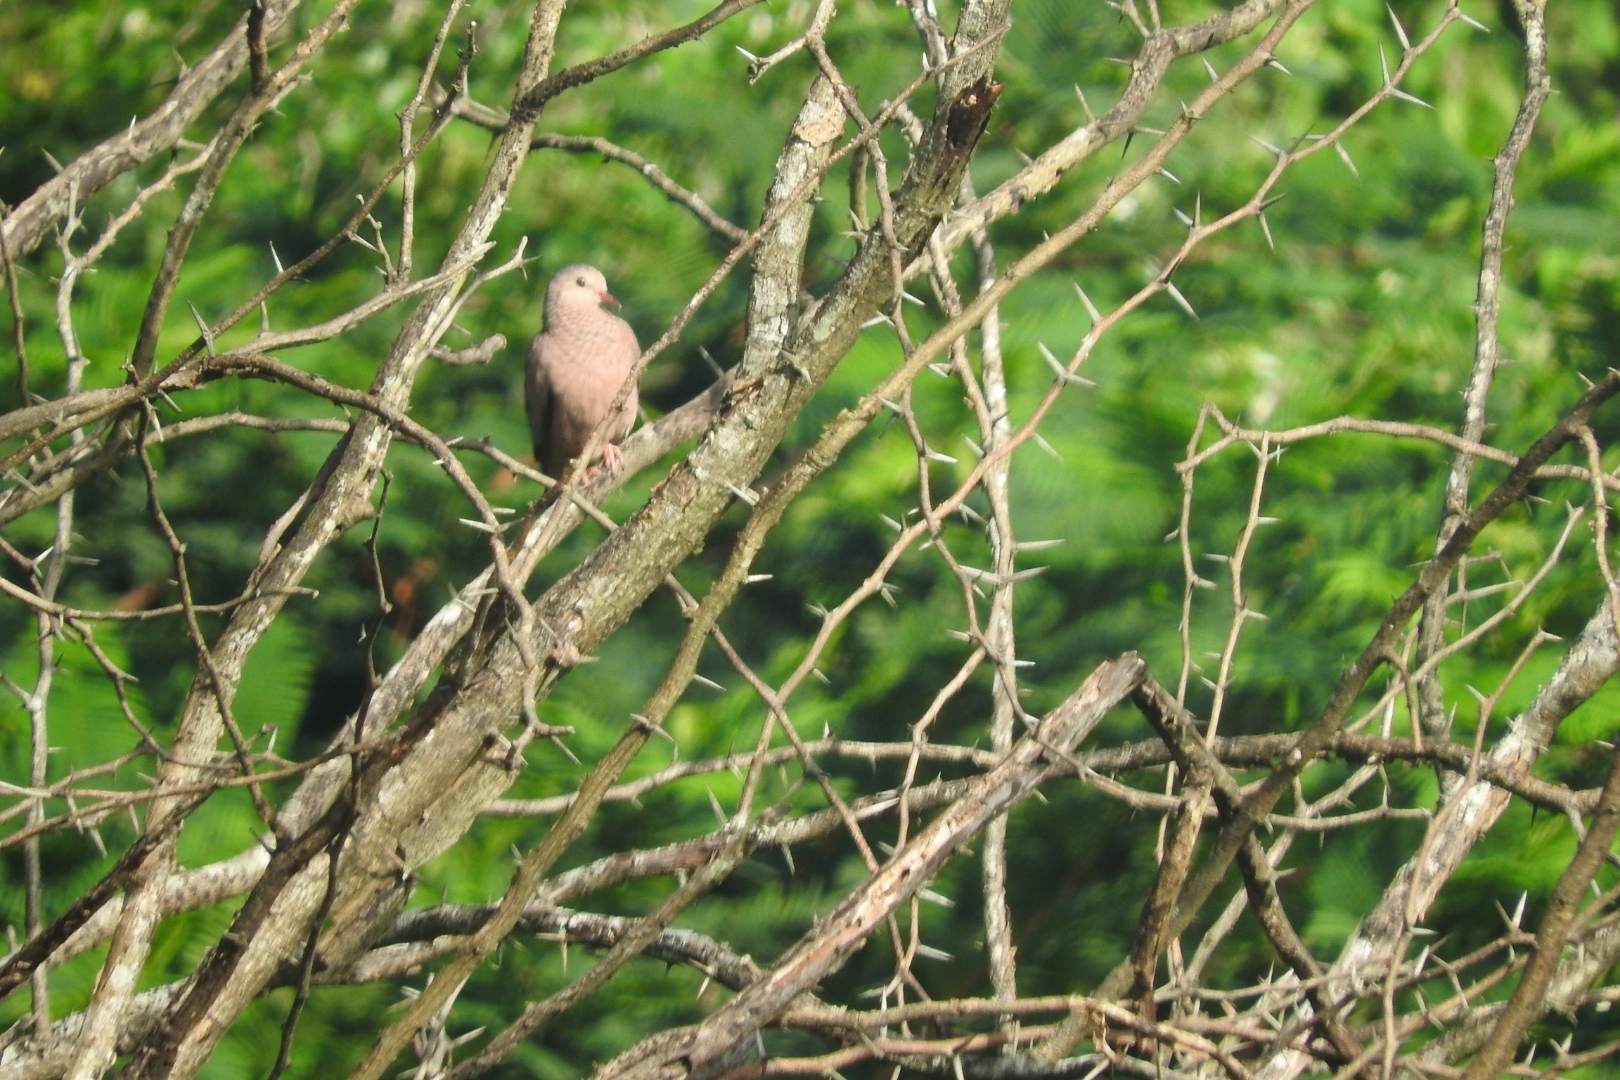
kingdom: Animalia
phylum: Chordata
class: Aves
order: Columbiformes
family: Columbidae
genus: Columbina
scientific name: Columbina passerina
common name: Common ground-dove
